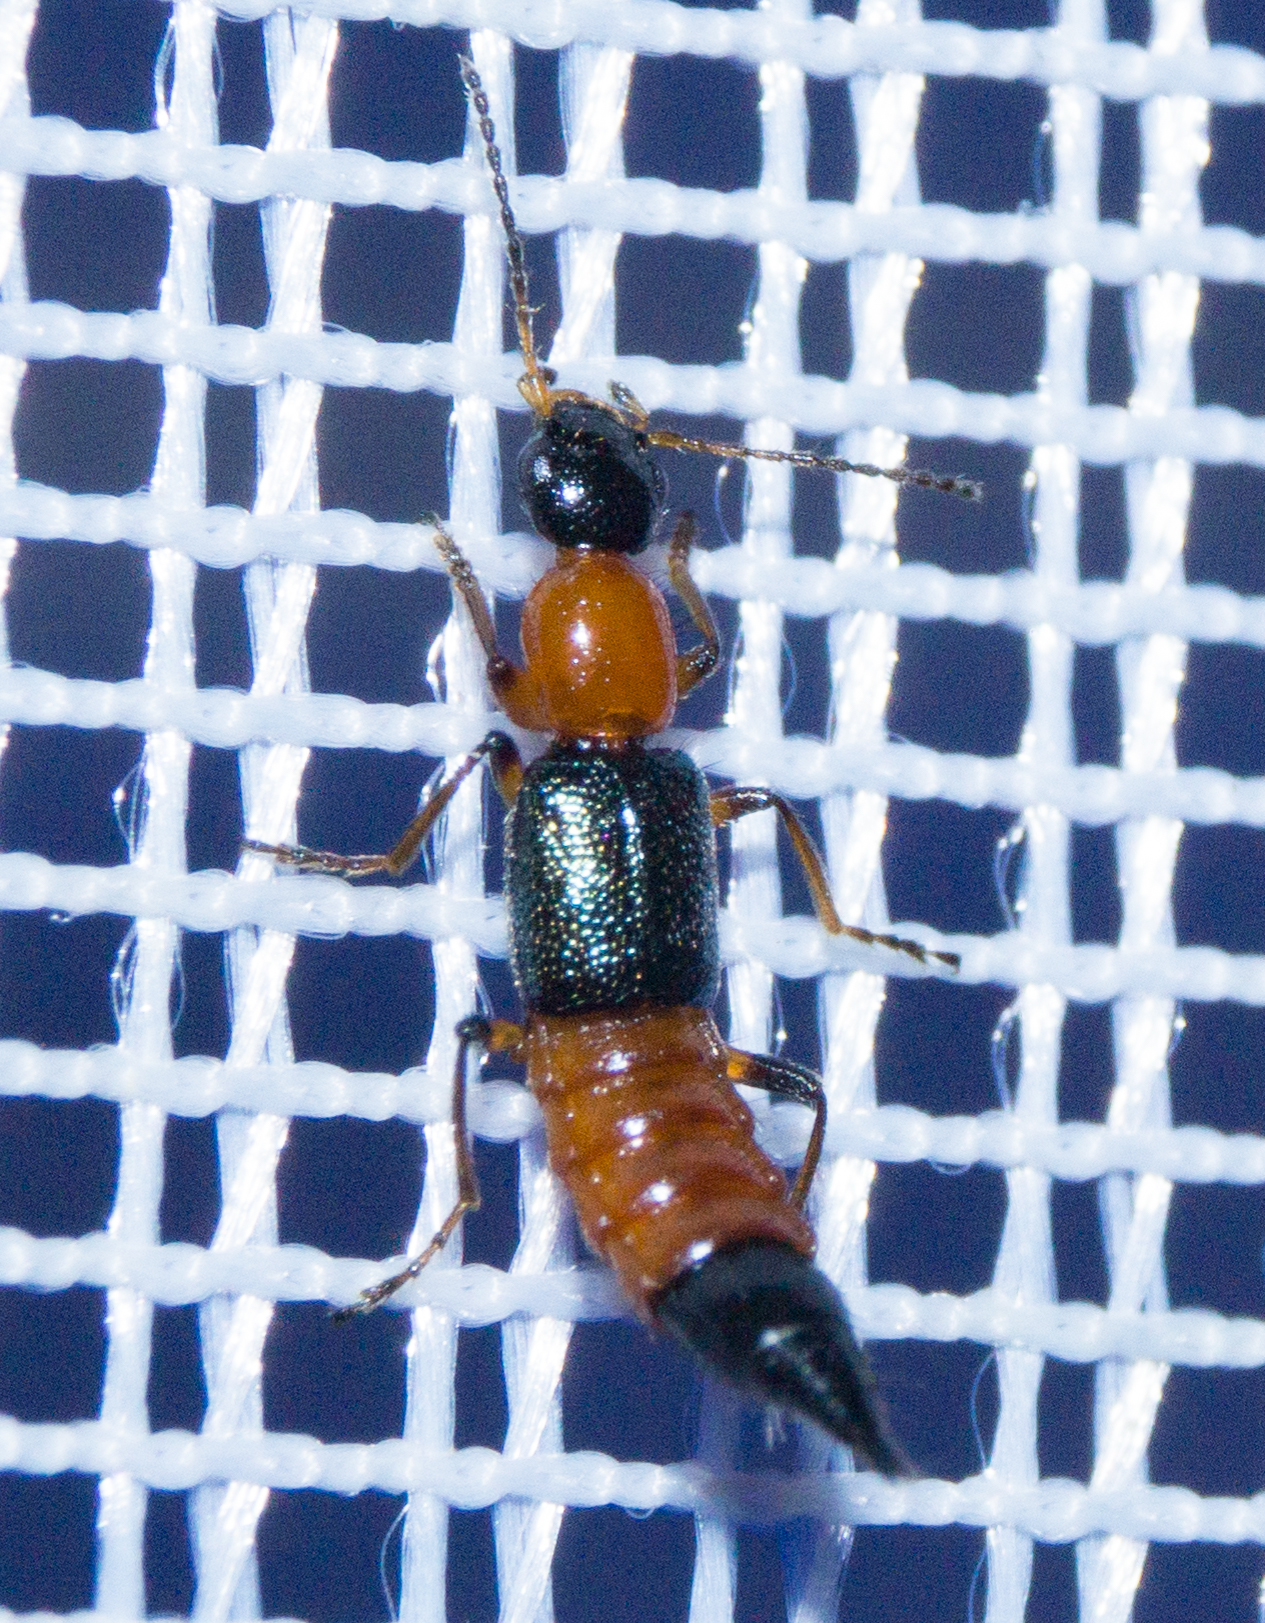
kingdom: Animalia
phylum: Arthropoda
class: Insecta
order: Coleoptera
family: Staphylinidae
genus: Paederus
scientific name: Paederus fuscipes
